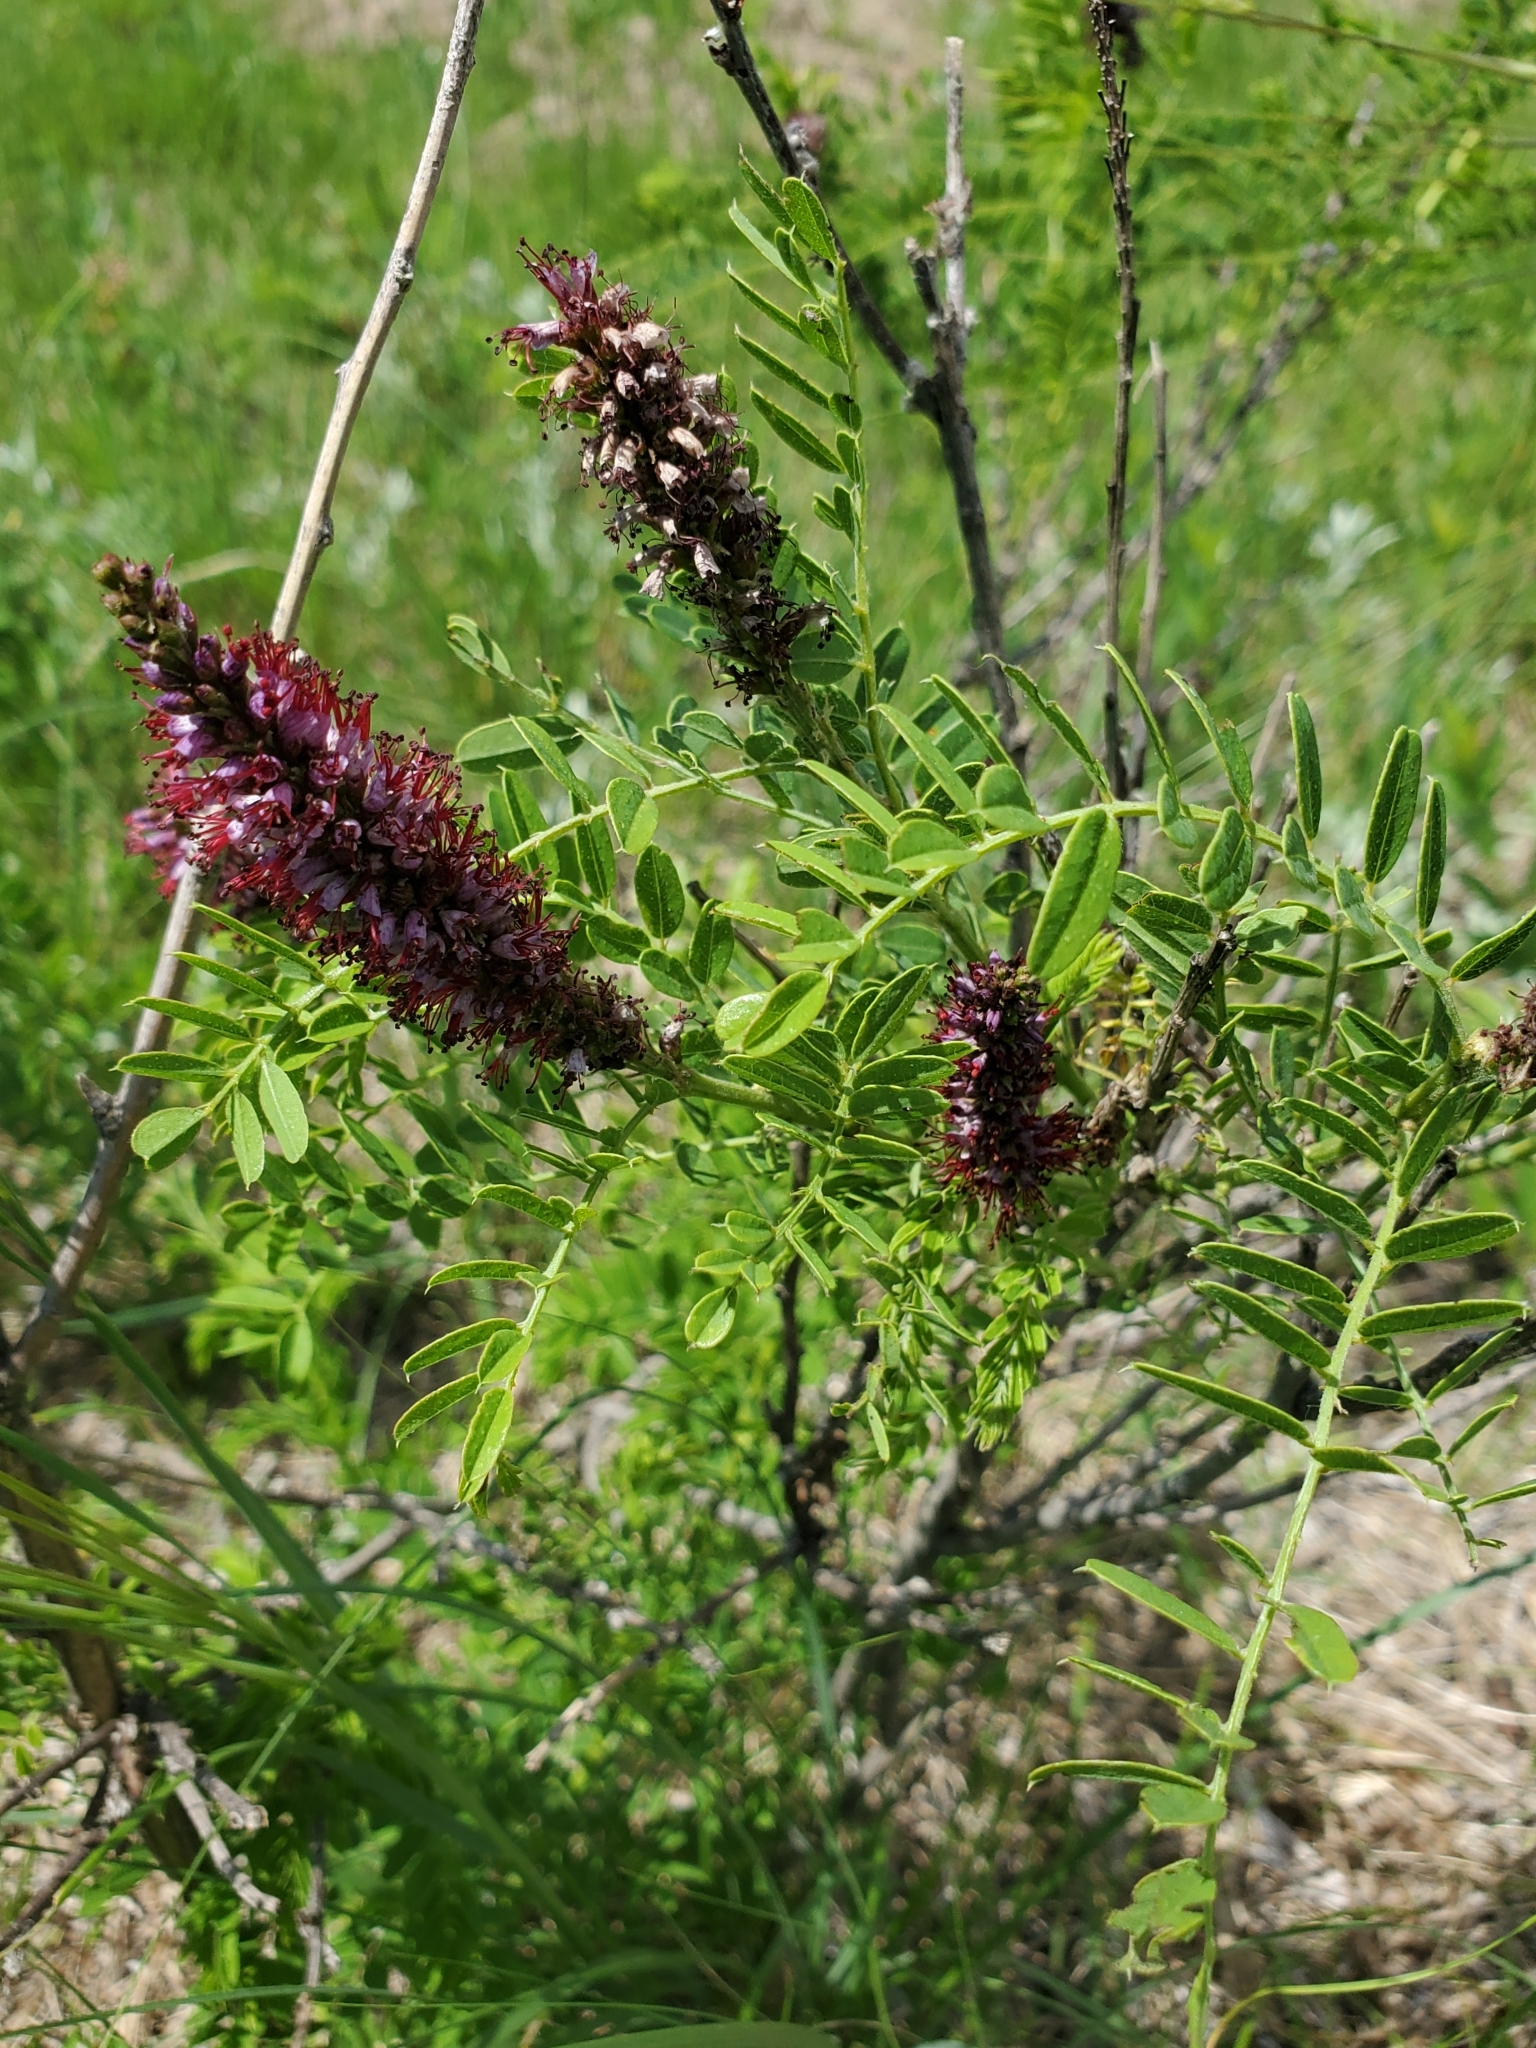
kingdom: Plantae
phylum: Tracheophyta
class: Magnoliopsida
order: Fabales
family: Fabaceae
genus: Amorpha
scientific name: Amorpha nana
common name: Fragrant false indigo
